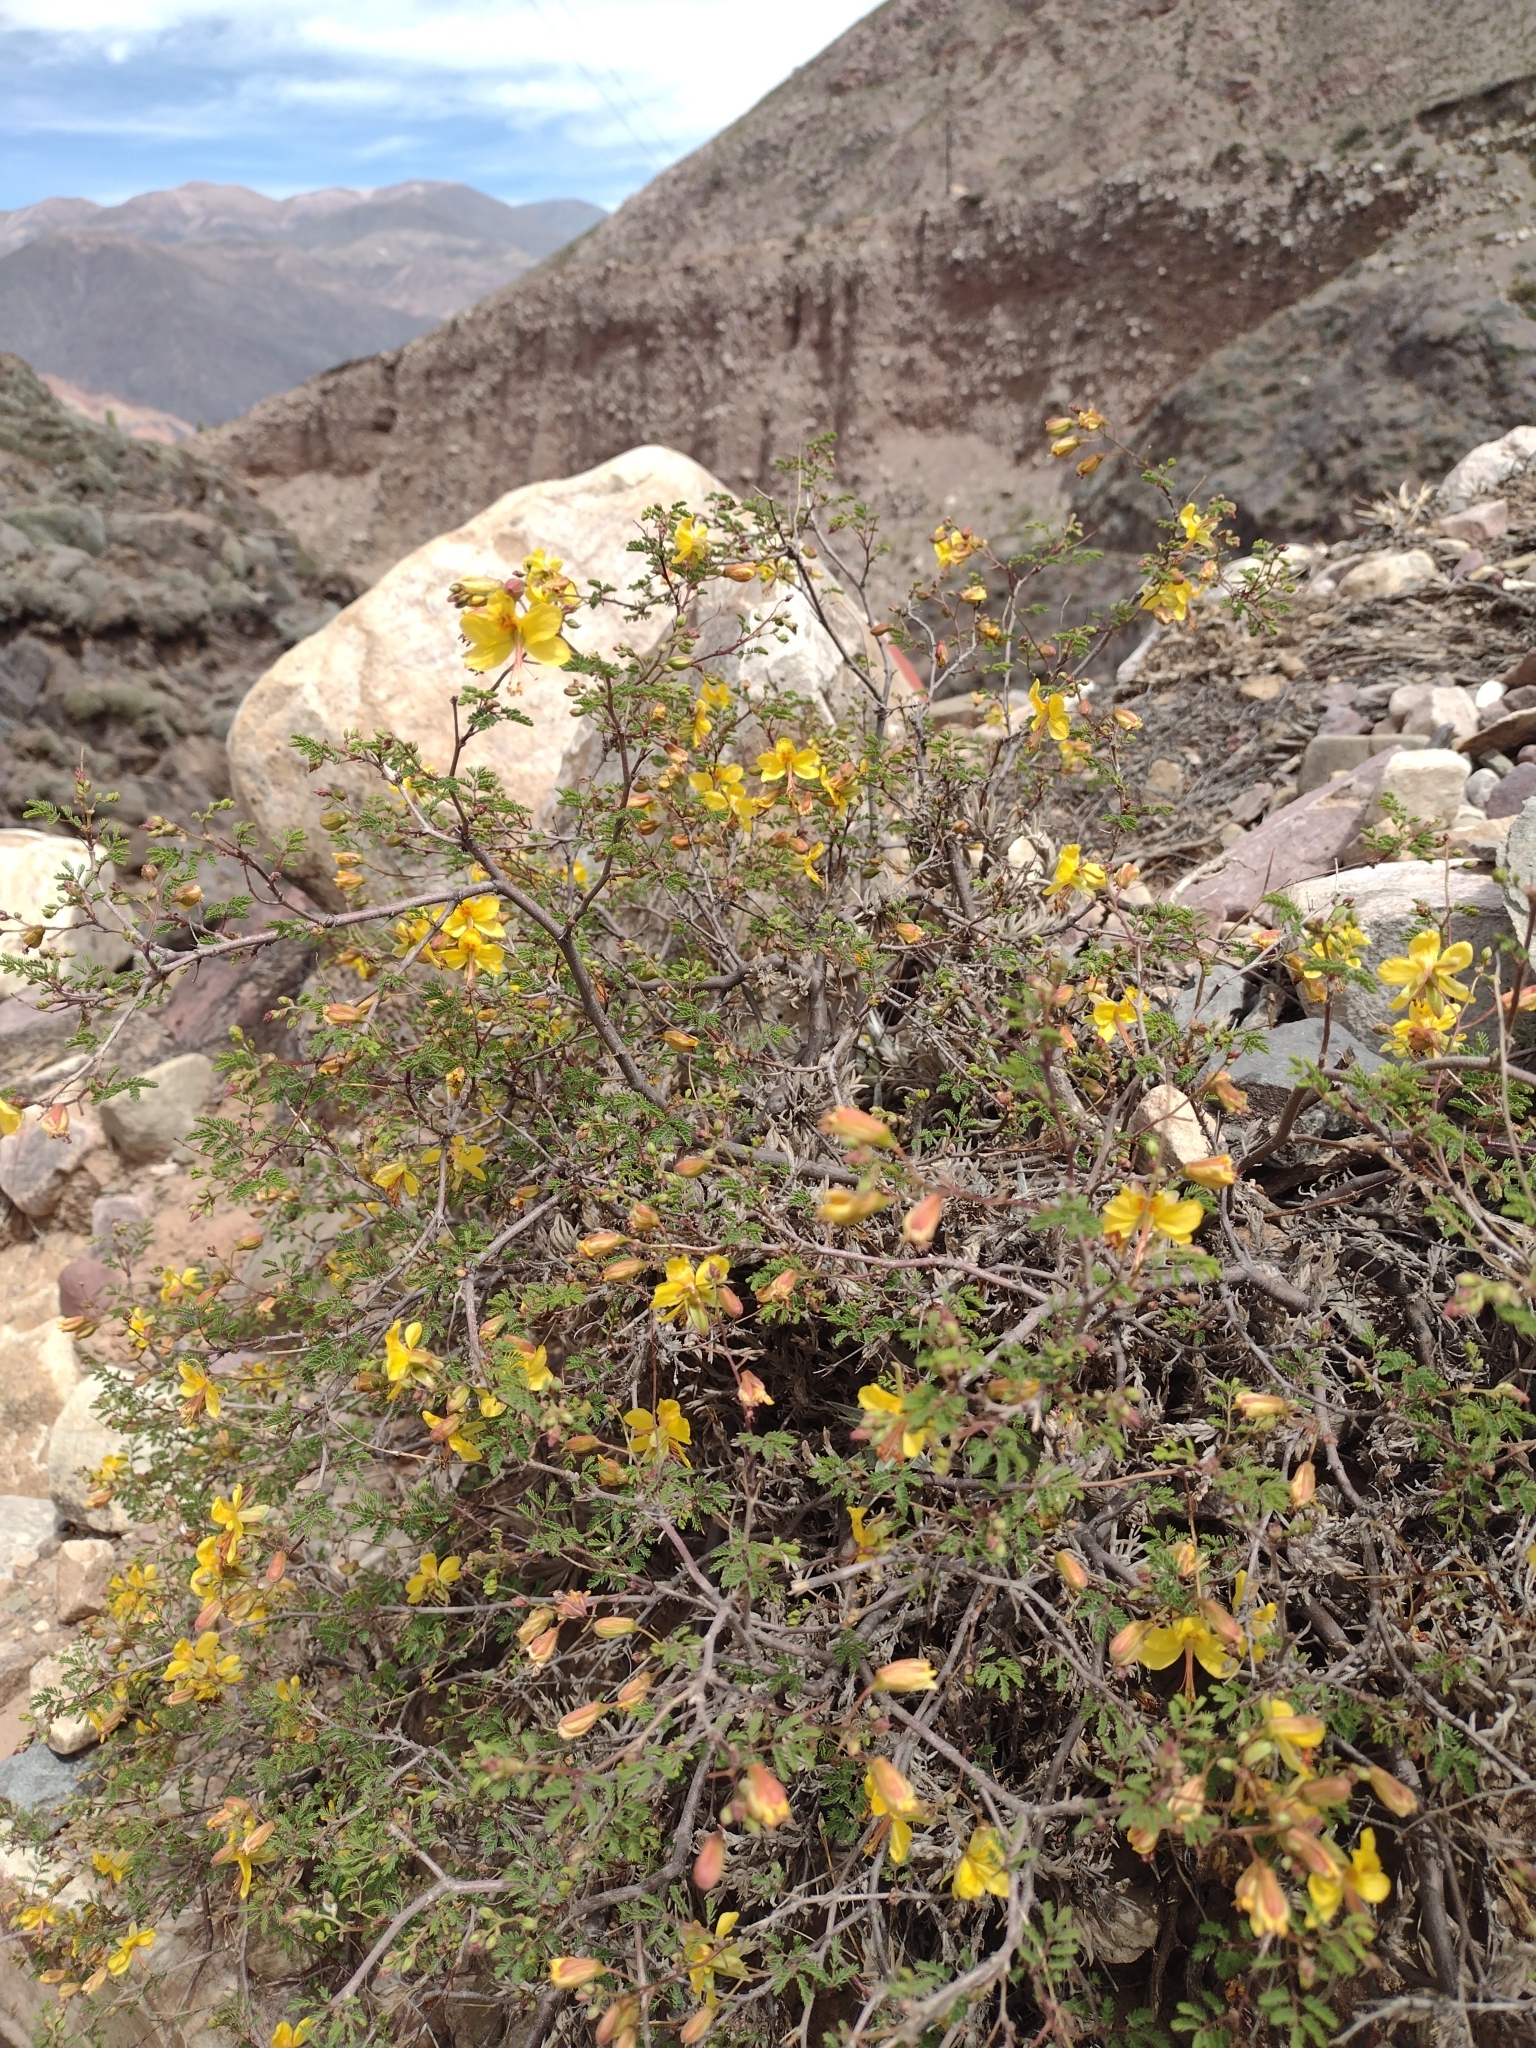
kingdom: Plantae
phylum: Tracheophyta
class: Magnoliopsida
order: Fabales
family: Fabaceae
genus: Arquita
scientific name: Arquita mimosifolia
